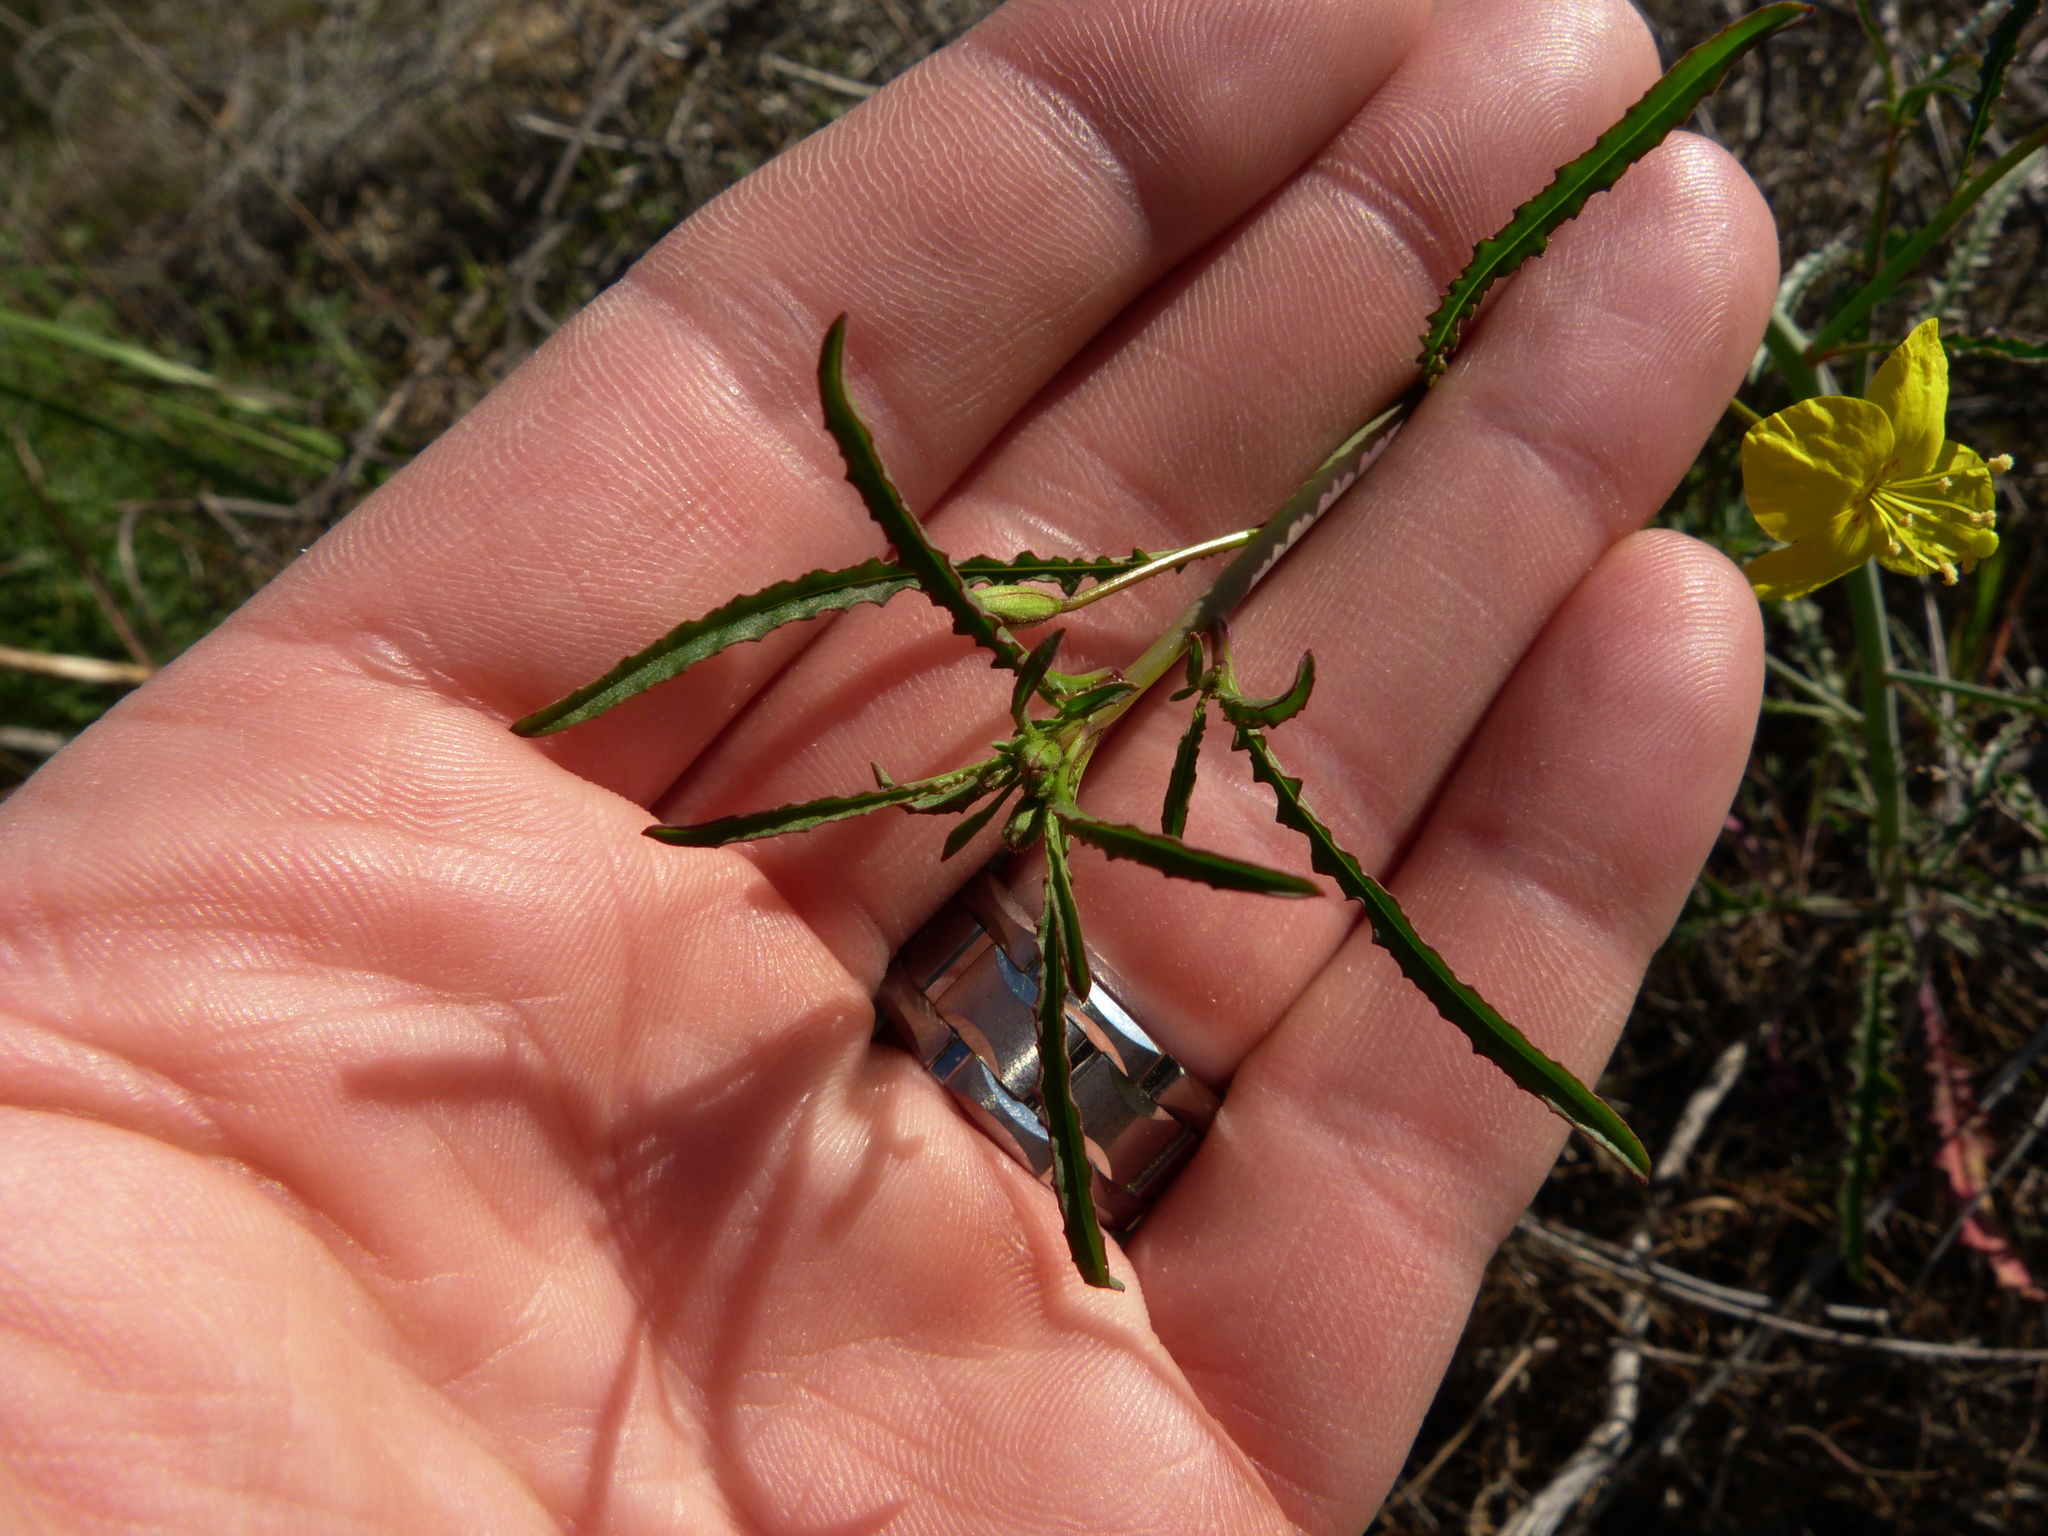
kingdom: Plantae
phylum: Tracheophyta
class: Magnoliopsida
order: Myrtales
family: Onagraceae
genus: Eulobus
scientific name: Eulobus californicus
